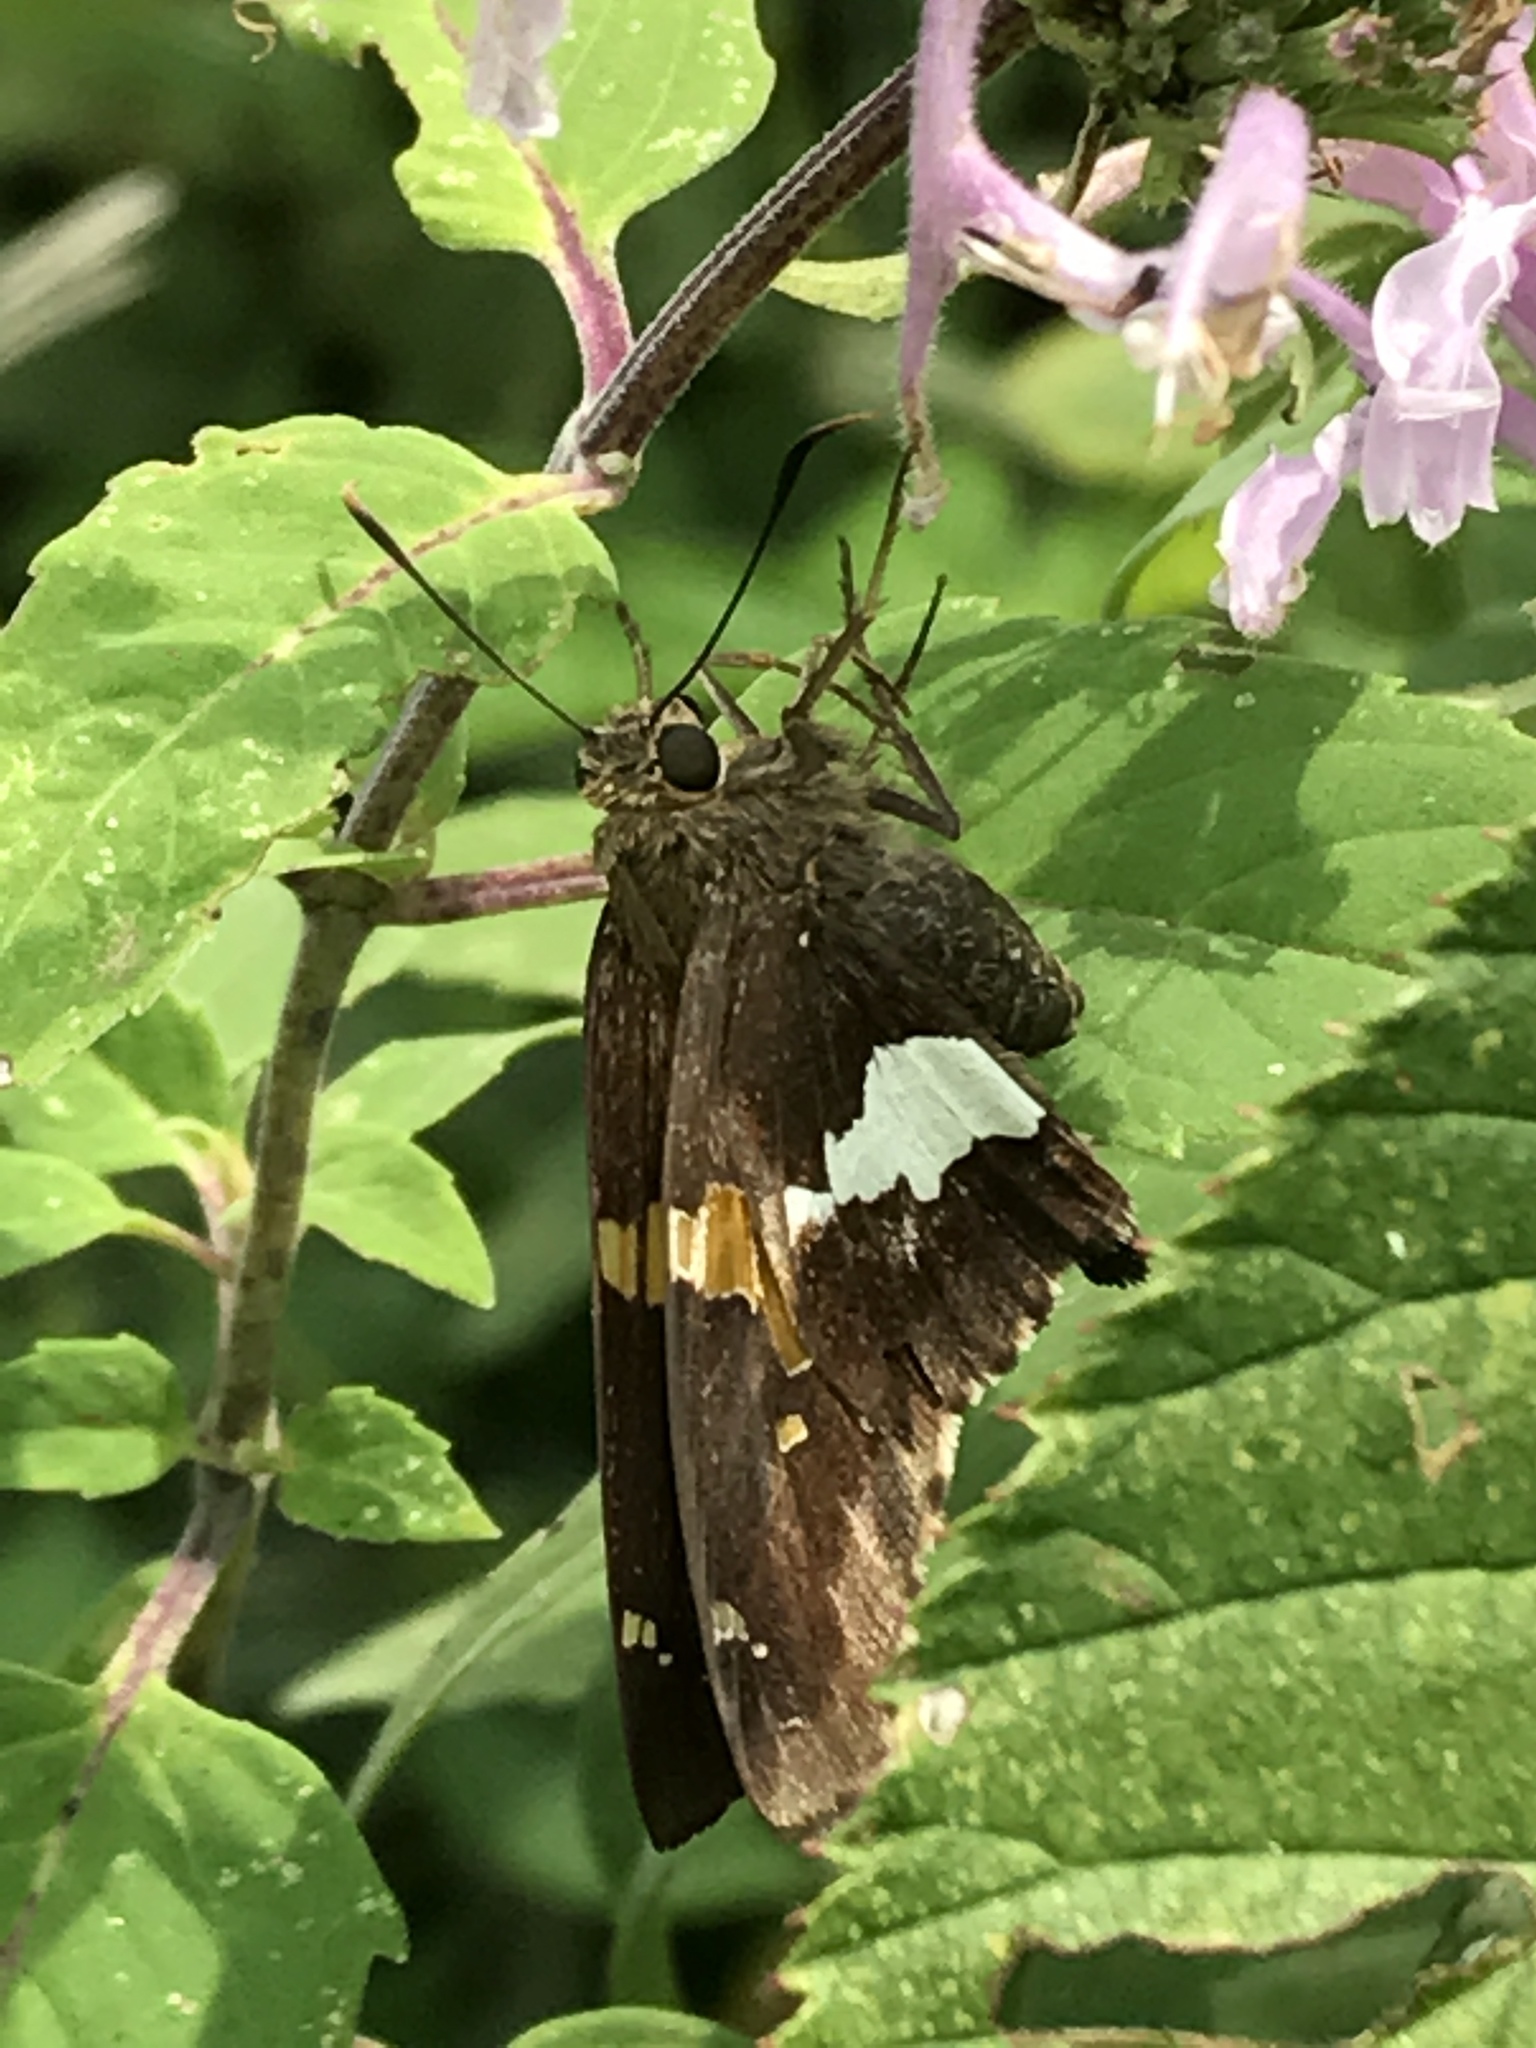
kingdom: Animalia
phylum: Arthropoda
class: Insecta
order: Lepidoptera
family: Hesperiidae
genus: Epargyreus
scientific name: Epargyreus clarus
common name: Silver-spotted skipper
